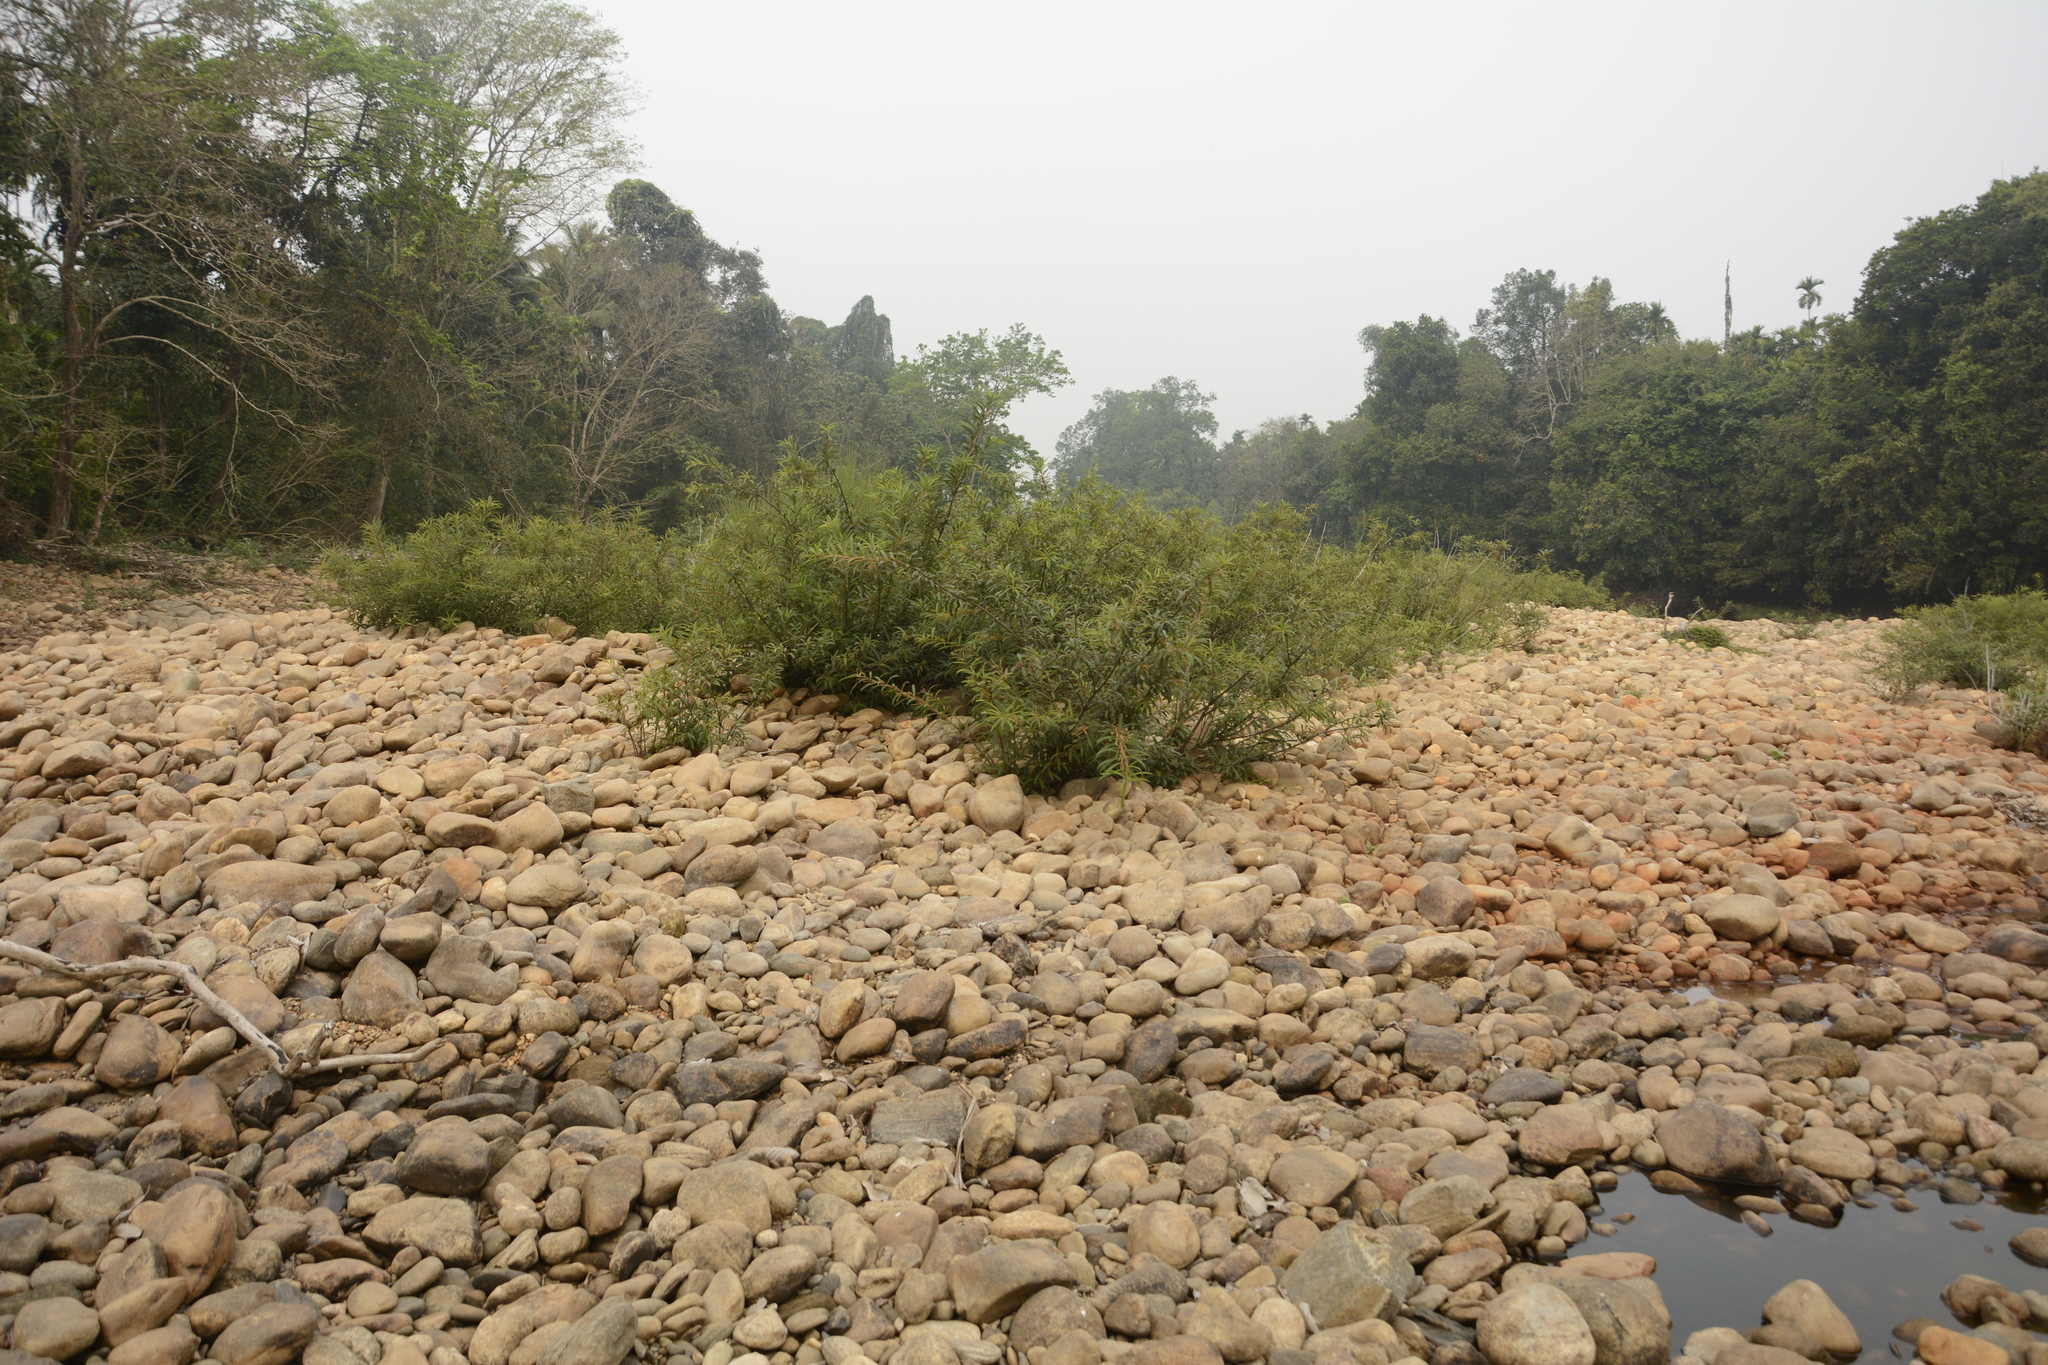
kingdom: Plantae
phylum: Tracheophyta
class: Magnoliopsida
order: Malpighiales
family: Euphorbiaceae
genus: Homonoia
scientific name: Homonoia riparia
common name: Willow-leaved water croton
